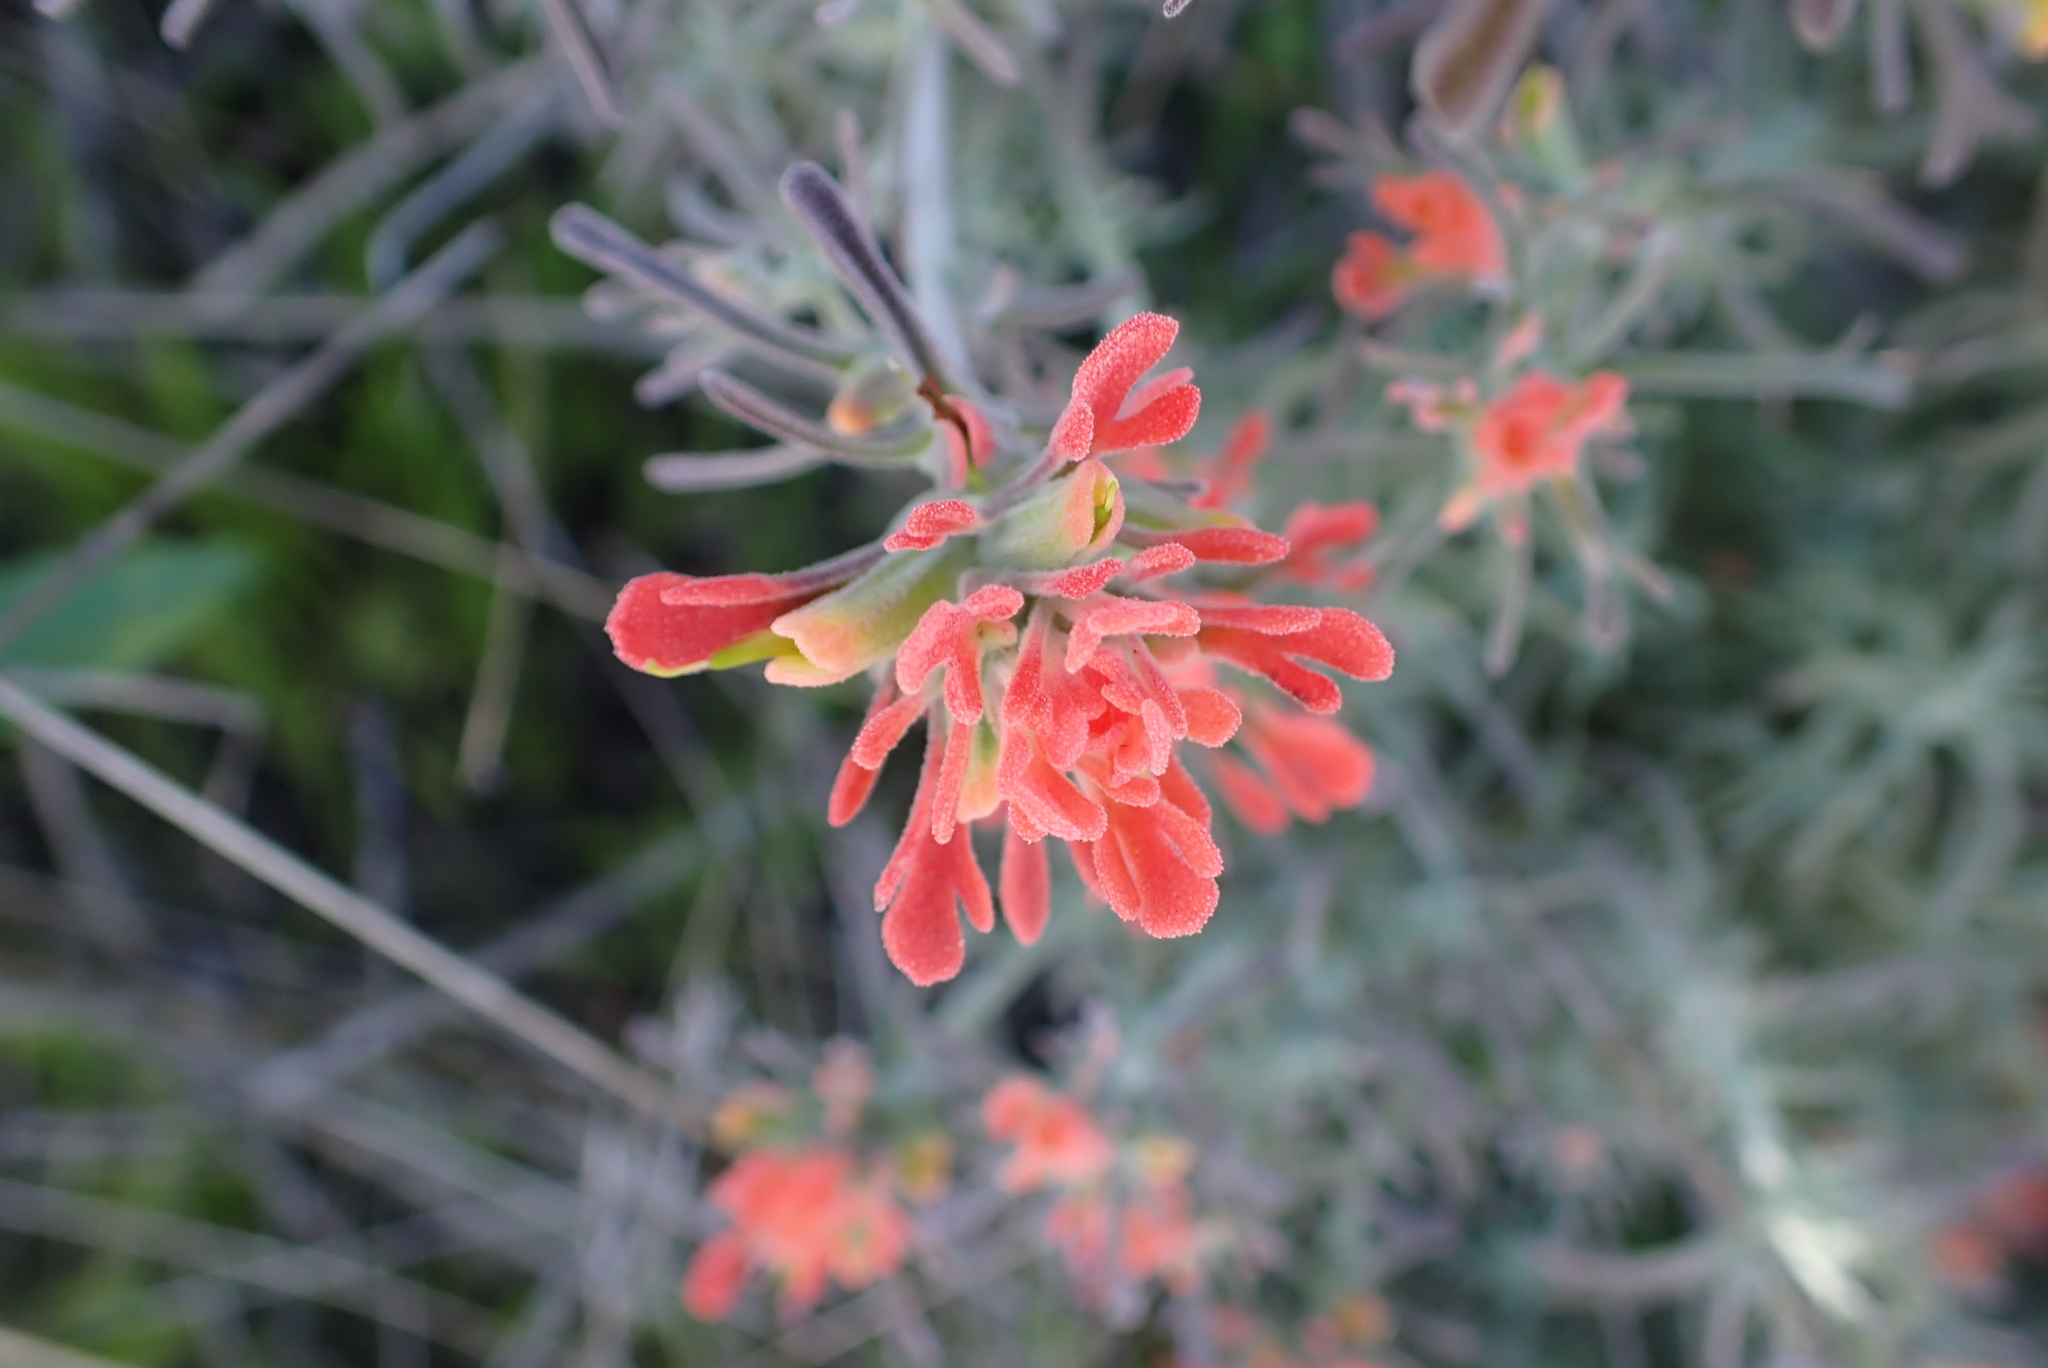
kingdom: Plantae
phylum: Tracheophyta
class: Magnoliopsida
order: Lamiales
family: Orobanchaceae
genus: Castilleja
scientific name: Castilleja foliolosa
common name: Woolly indian paintbrush
